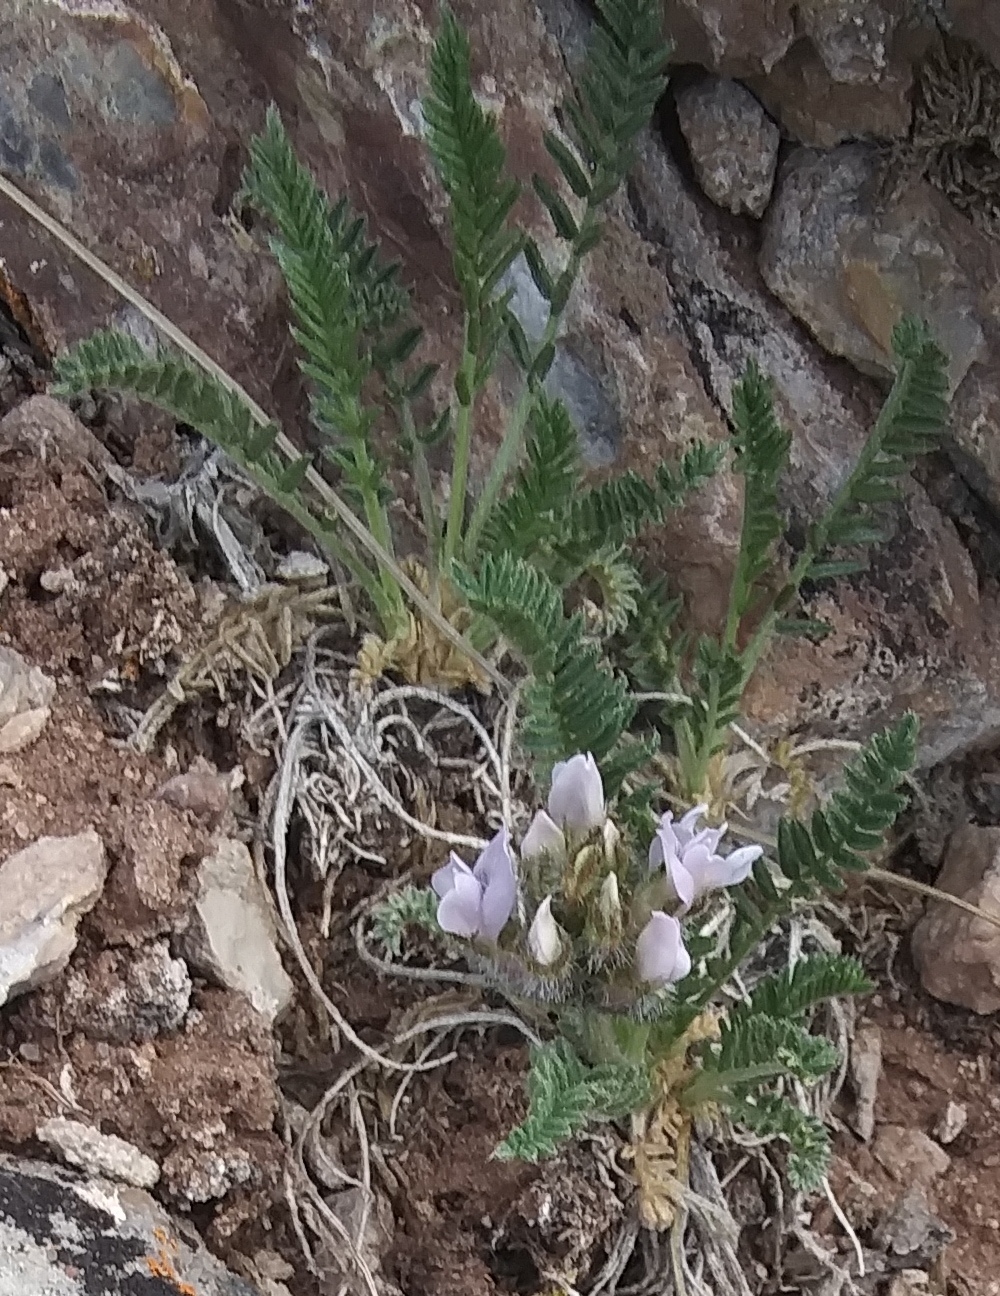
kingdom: Plantae
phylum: Tracheophyta
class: Magnoliopsida
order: Fabales
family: Fabaceae
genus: Oxytropis
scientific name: Oxytropis borealis
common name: Boreal locoweed
